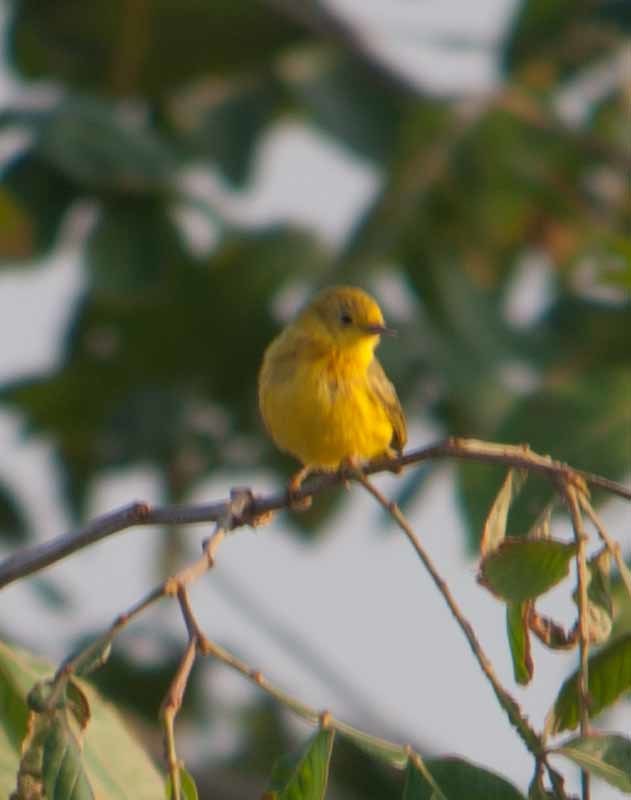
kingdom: Animalia
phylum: Chordata
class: Aves
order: Passeriformes
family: Parulidae
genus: Setophaga
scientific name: Setophaga petechia
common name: Yellow warbler
